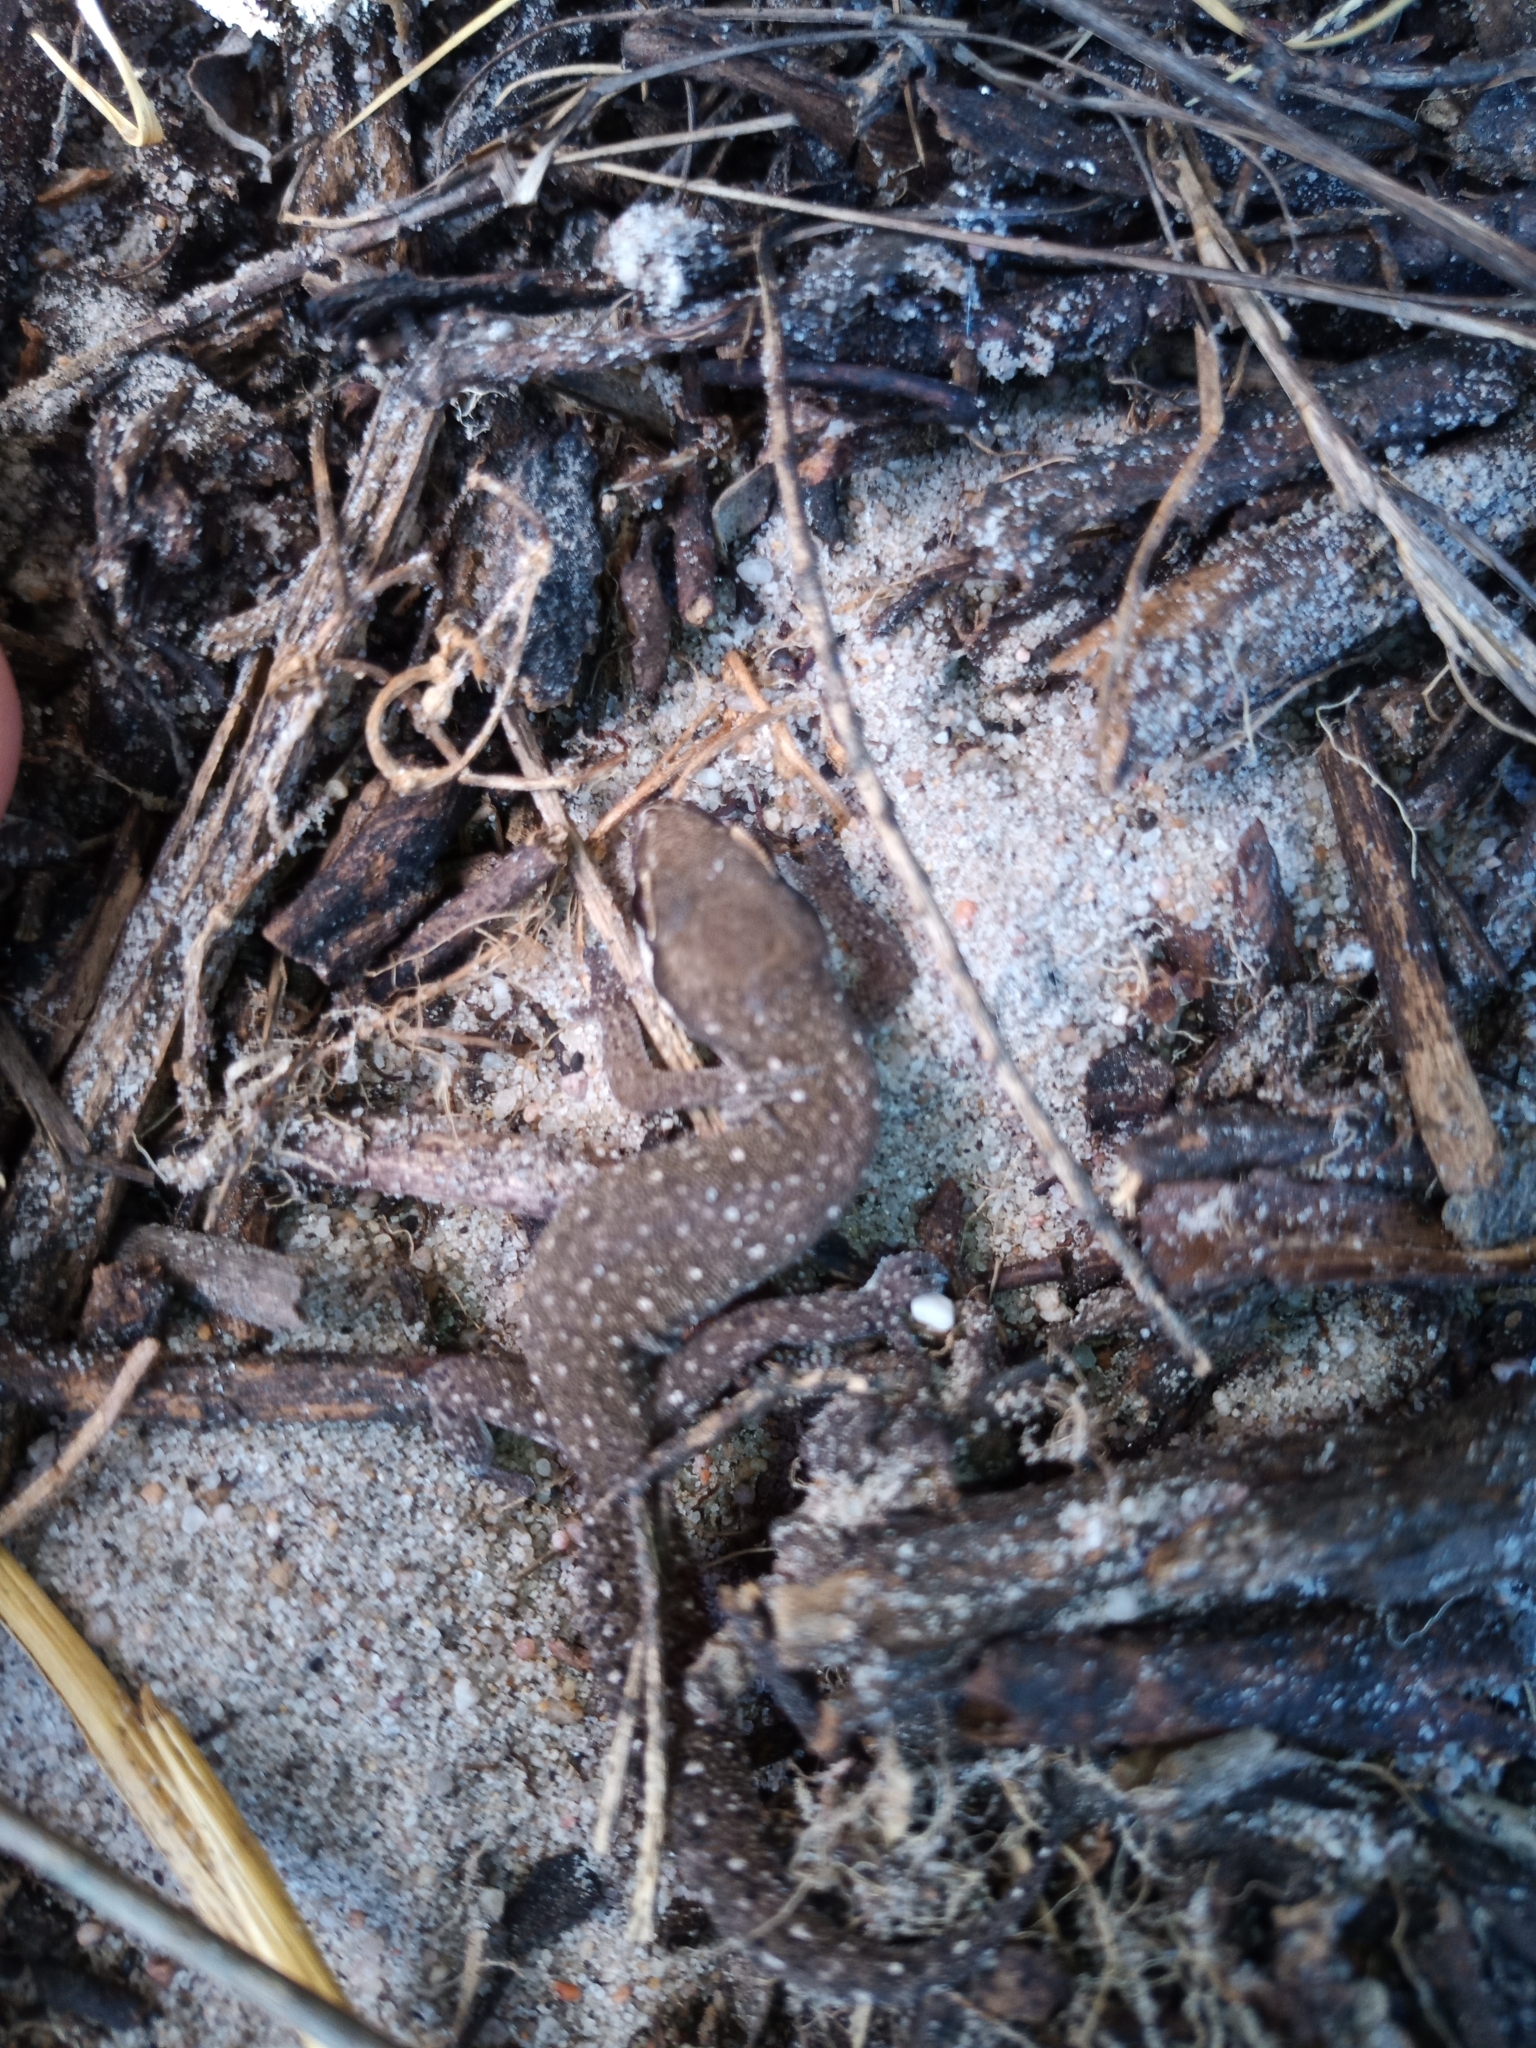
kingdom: Animalia
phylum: Chordata
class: Squamata
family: Gekkonidae
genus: Pachydactylus
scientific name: Pachydactylus geitje
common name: Ocellated thick-toed gecko
